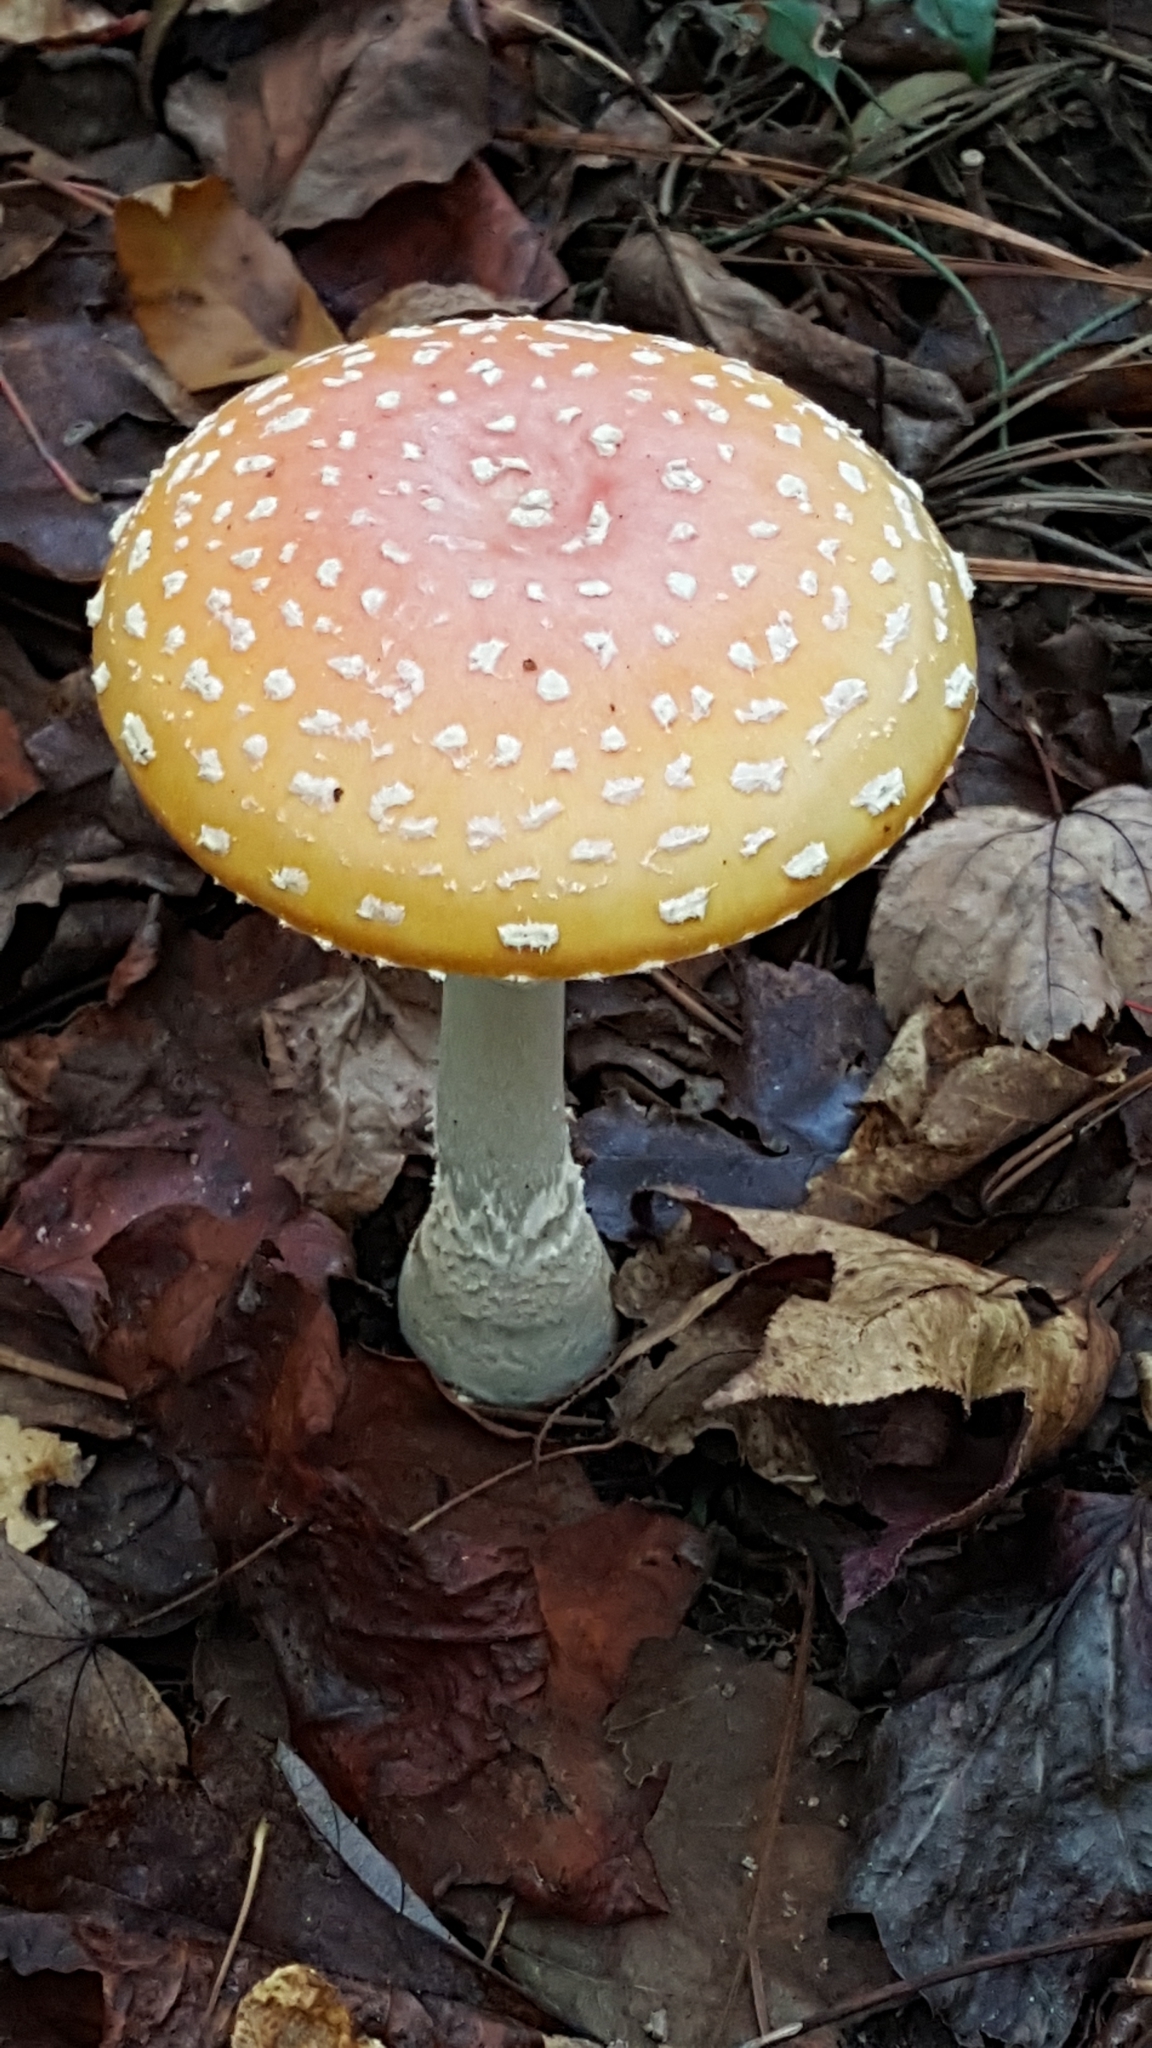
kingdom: Fungi
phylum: Basidiomycota
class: Agaricomycetes
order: Agaricales
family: Amanitaceae
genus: Amanita
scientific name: Amanita persicina
